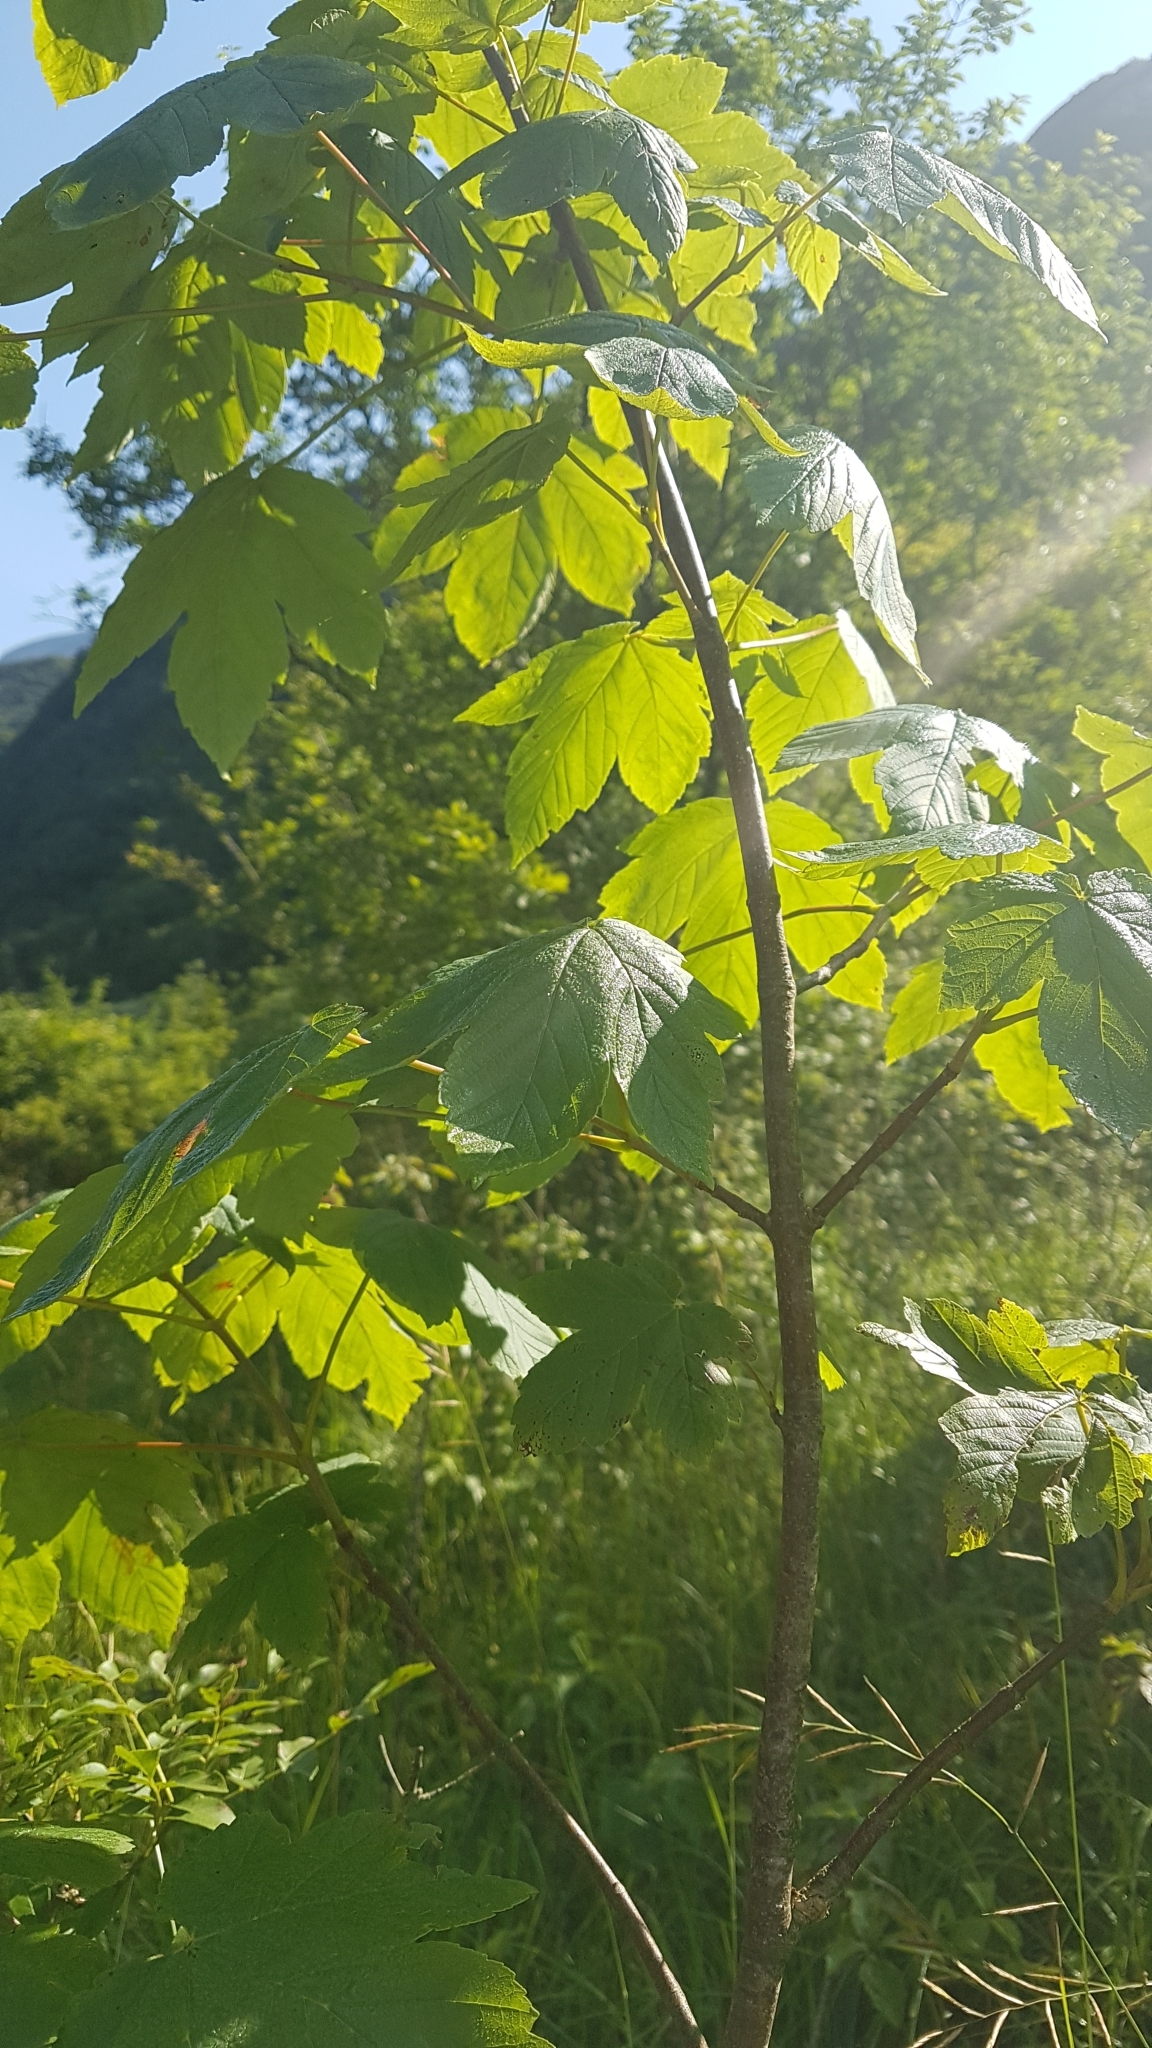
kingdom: Plantae
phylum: Tracheophyta
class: Magnoliopsida
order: Sapindales
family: Sapindaceae
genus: Acer
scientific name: Acer pseudoplatanus
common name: Sycamore
